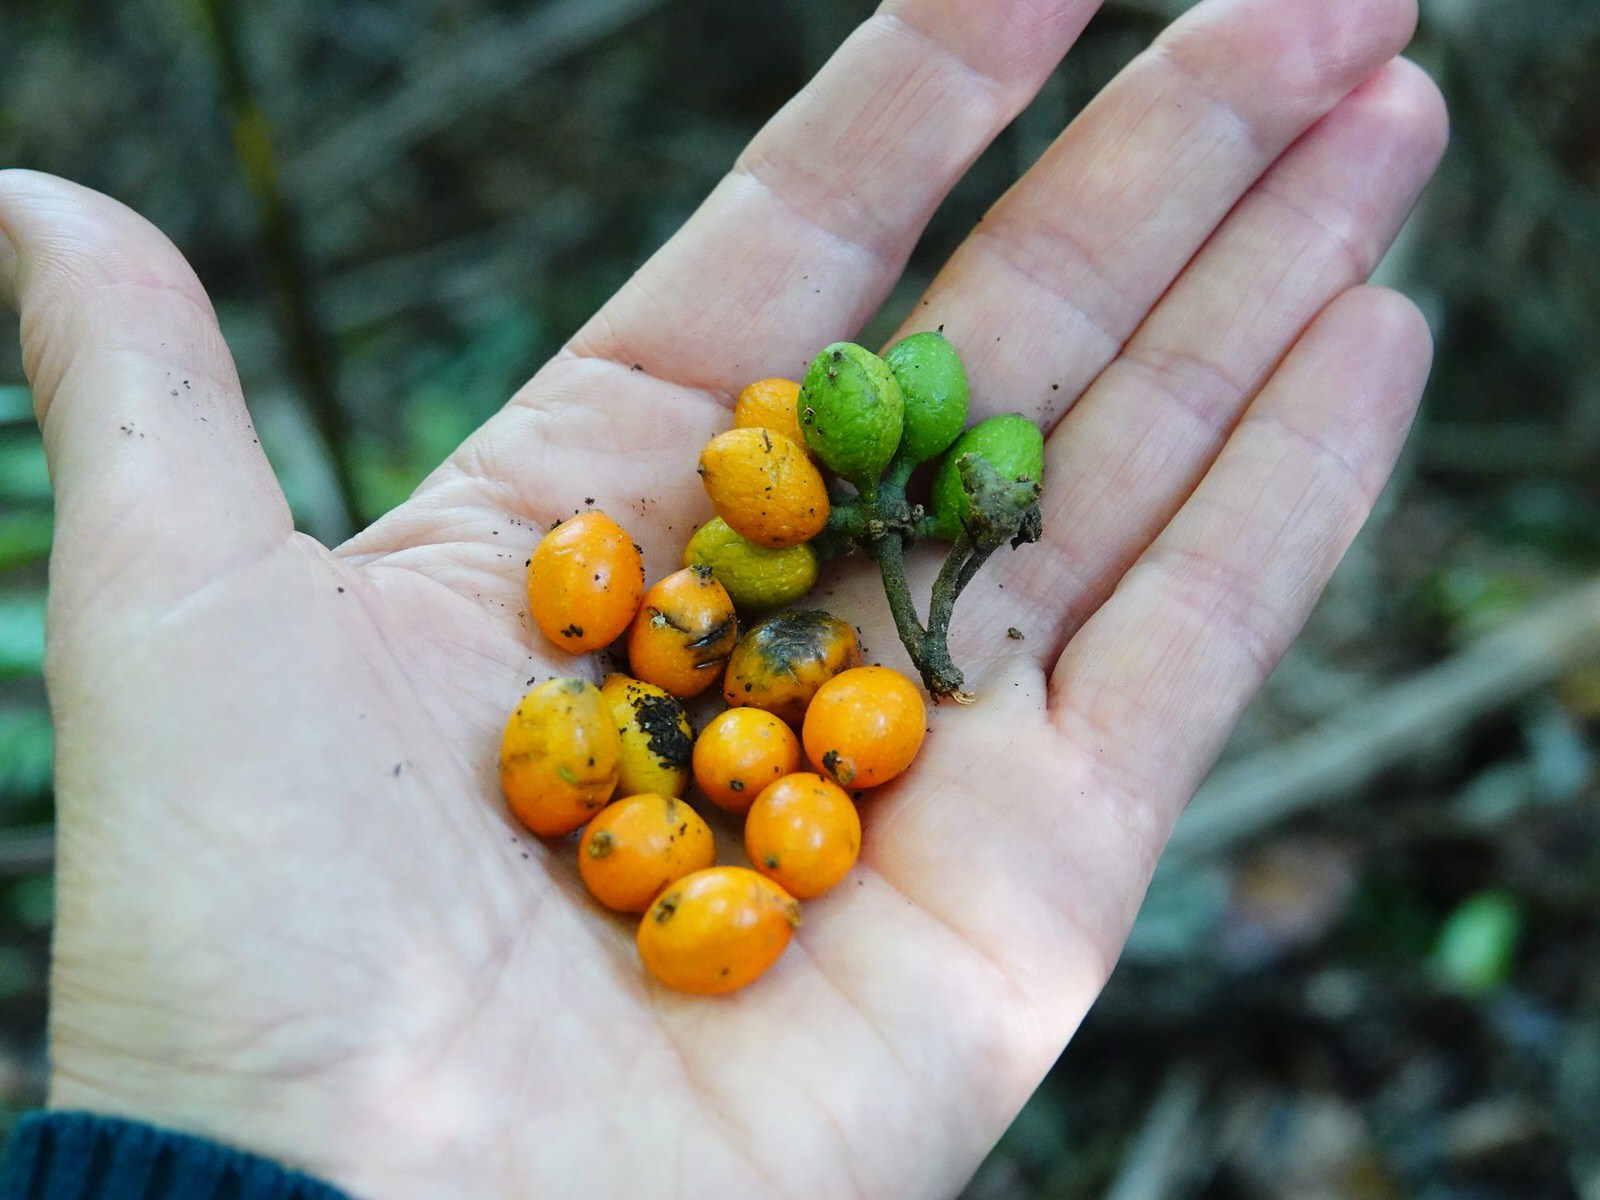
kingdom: Plantae
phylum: Tracheophyta
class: Magnoliopsida
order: Laurales
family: Monimiaceae
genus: Hedycarya
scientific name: Hedycarya arborea
